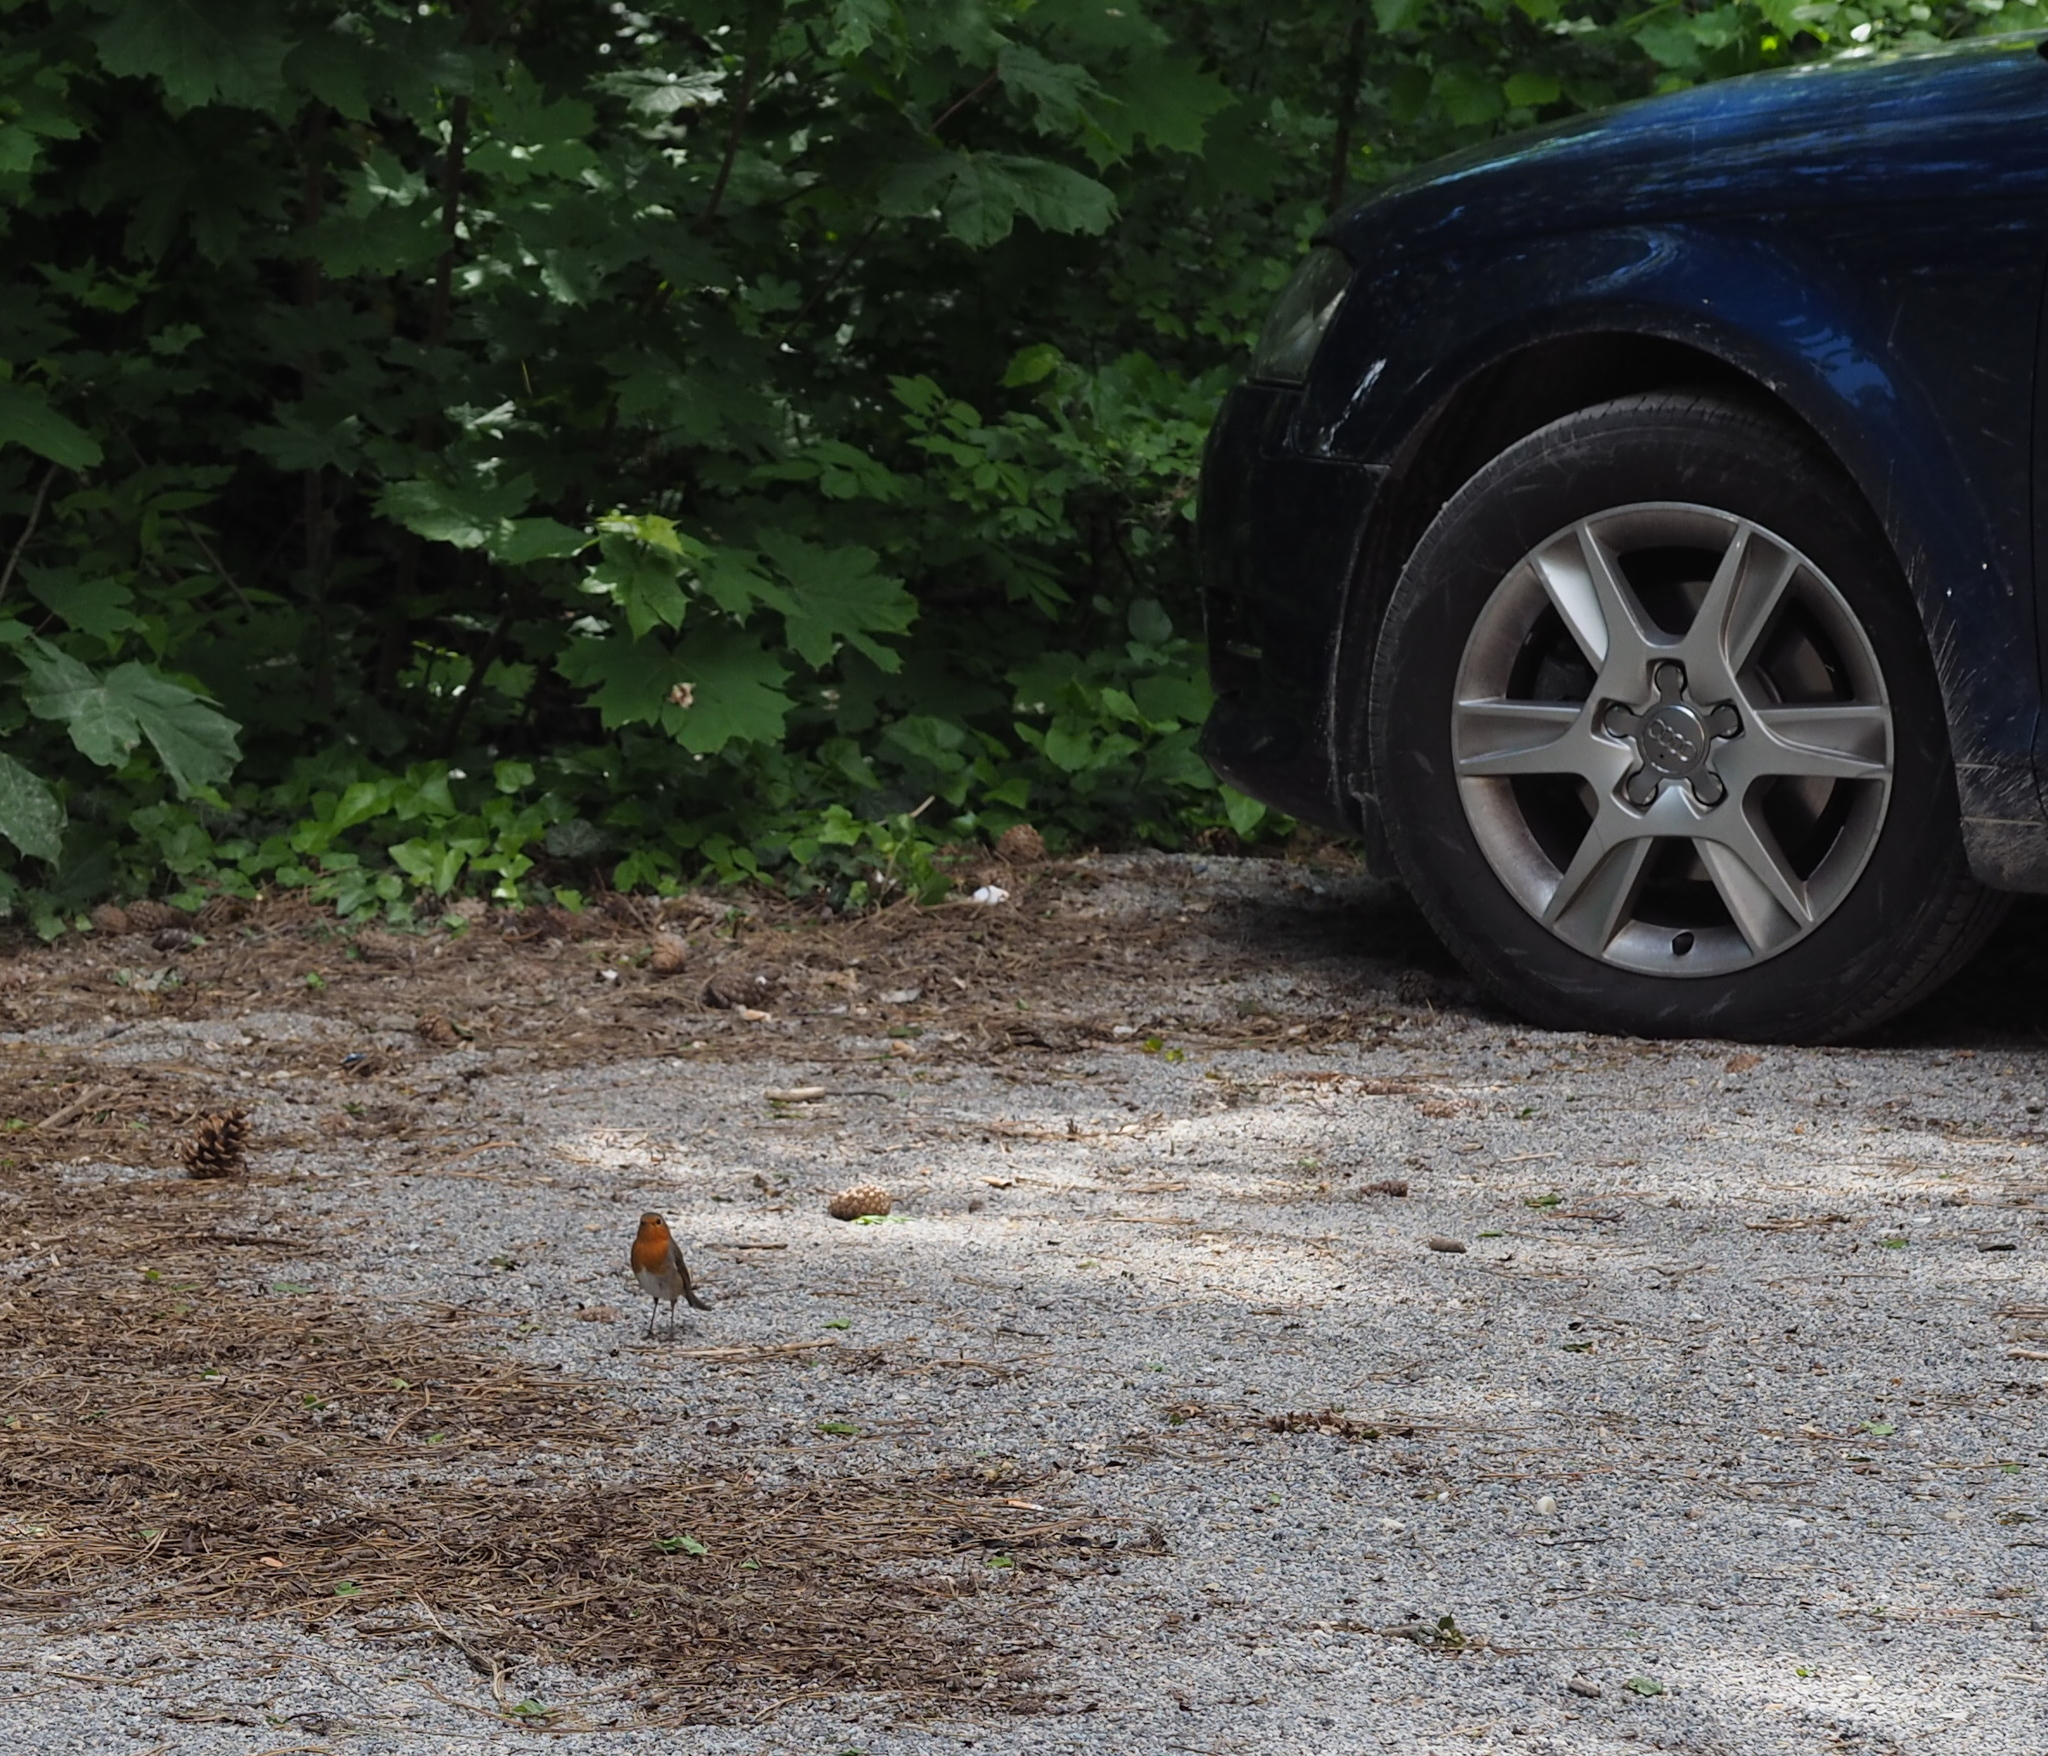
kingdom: Animalia
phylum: Chordata
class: Aves
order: Passeriformes
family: Muscicapidae
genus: Erithacus
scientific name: Erithacus rubecula
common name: European robin
